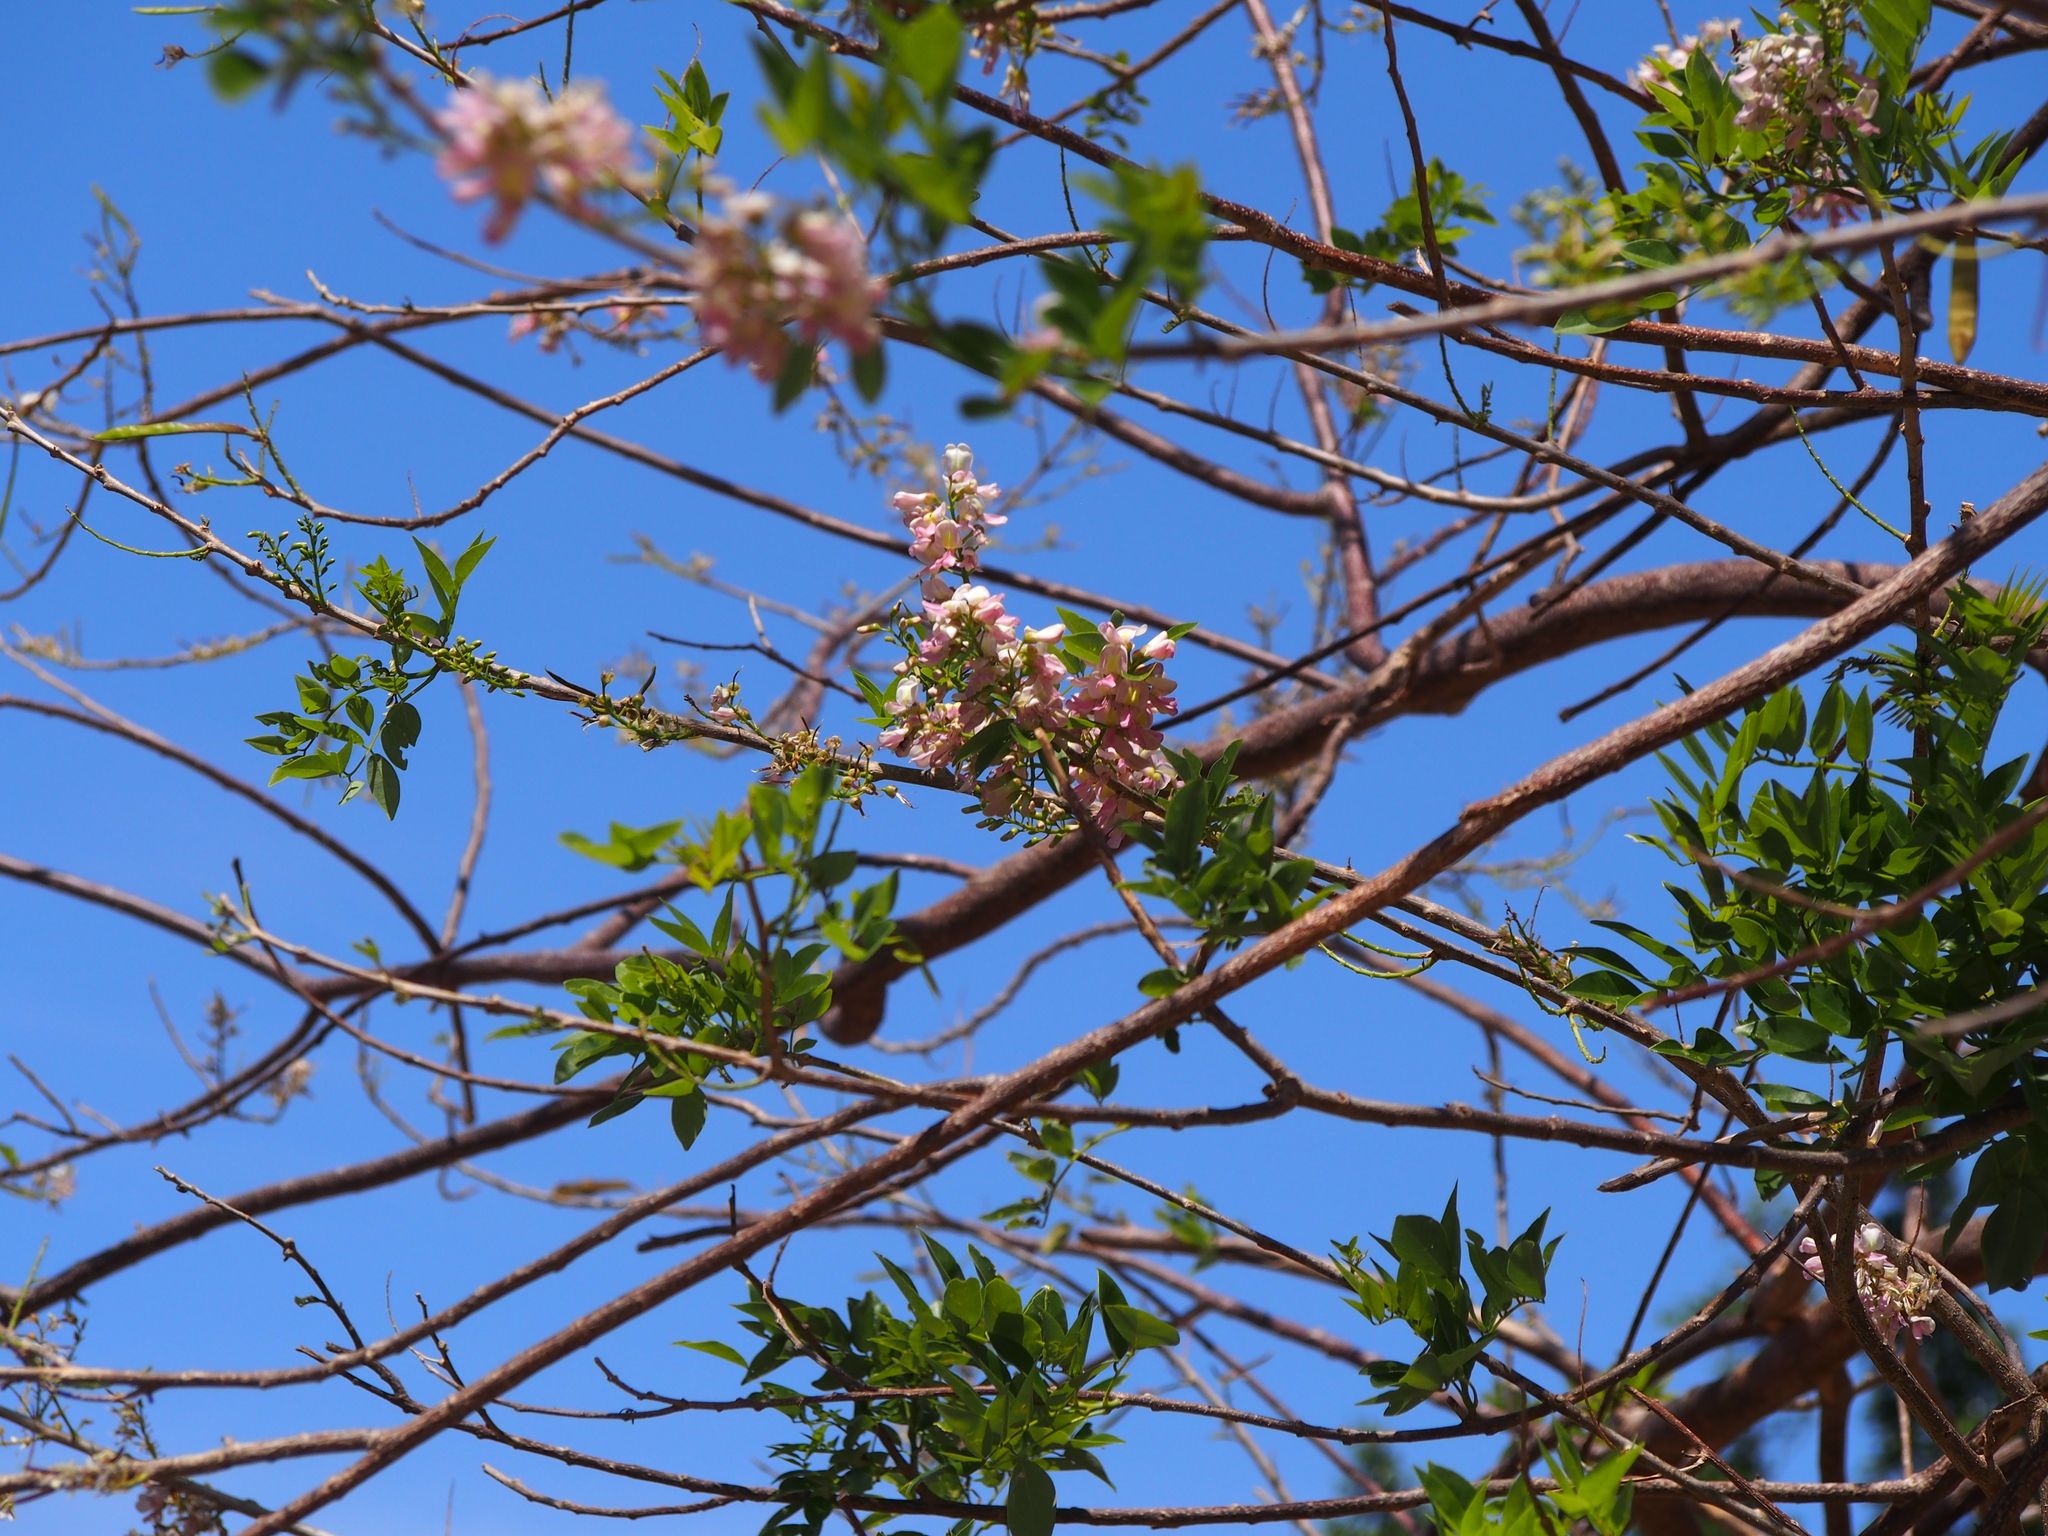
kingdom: Plantae
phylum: Tracheophyta
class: Magnoliopsida
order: Fabales
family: Fabaceae
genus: Gliricidia
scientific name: Gliricidia sepium
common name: Quickstick
